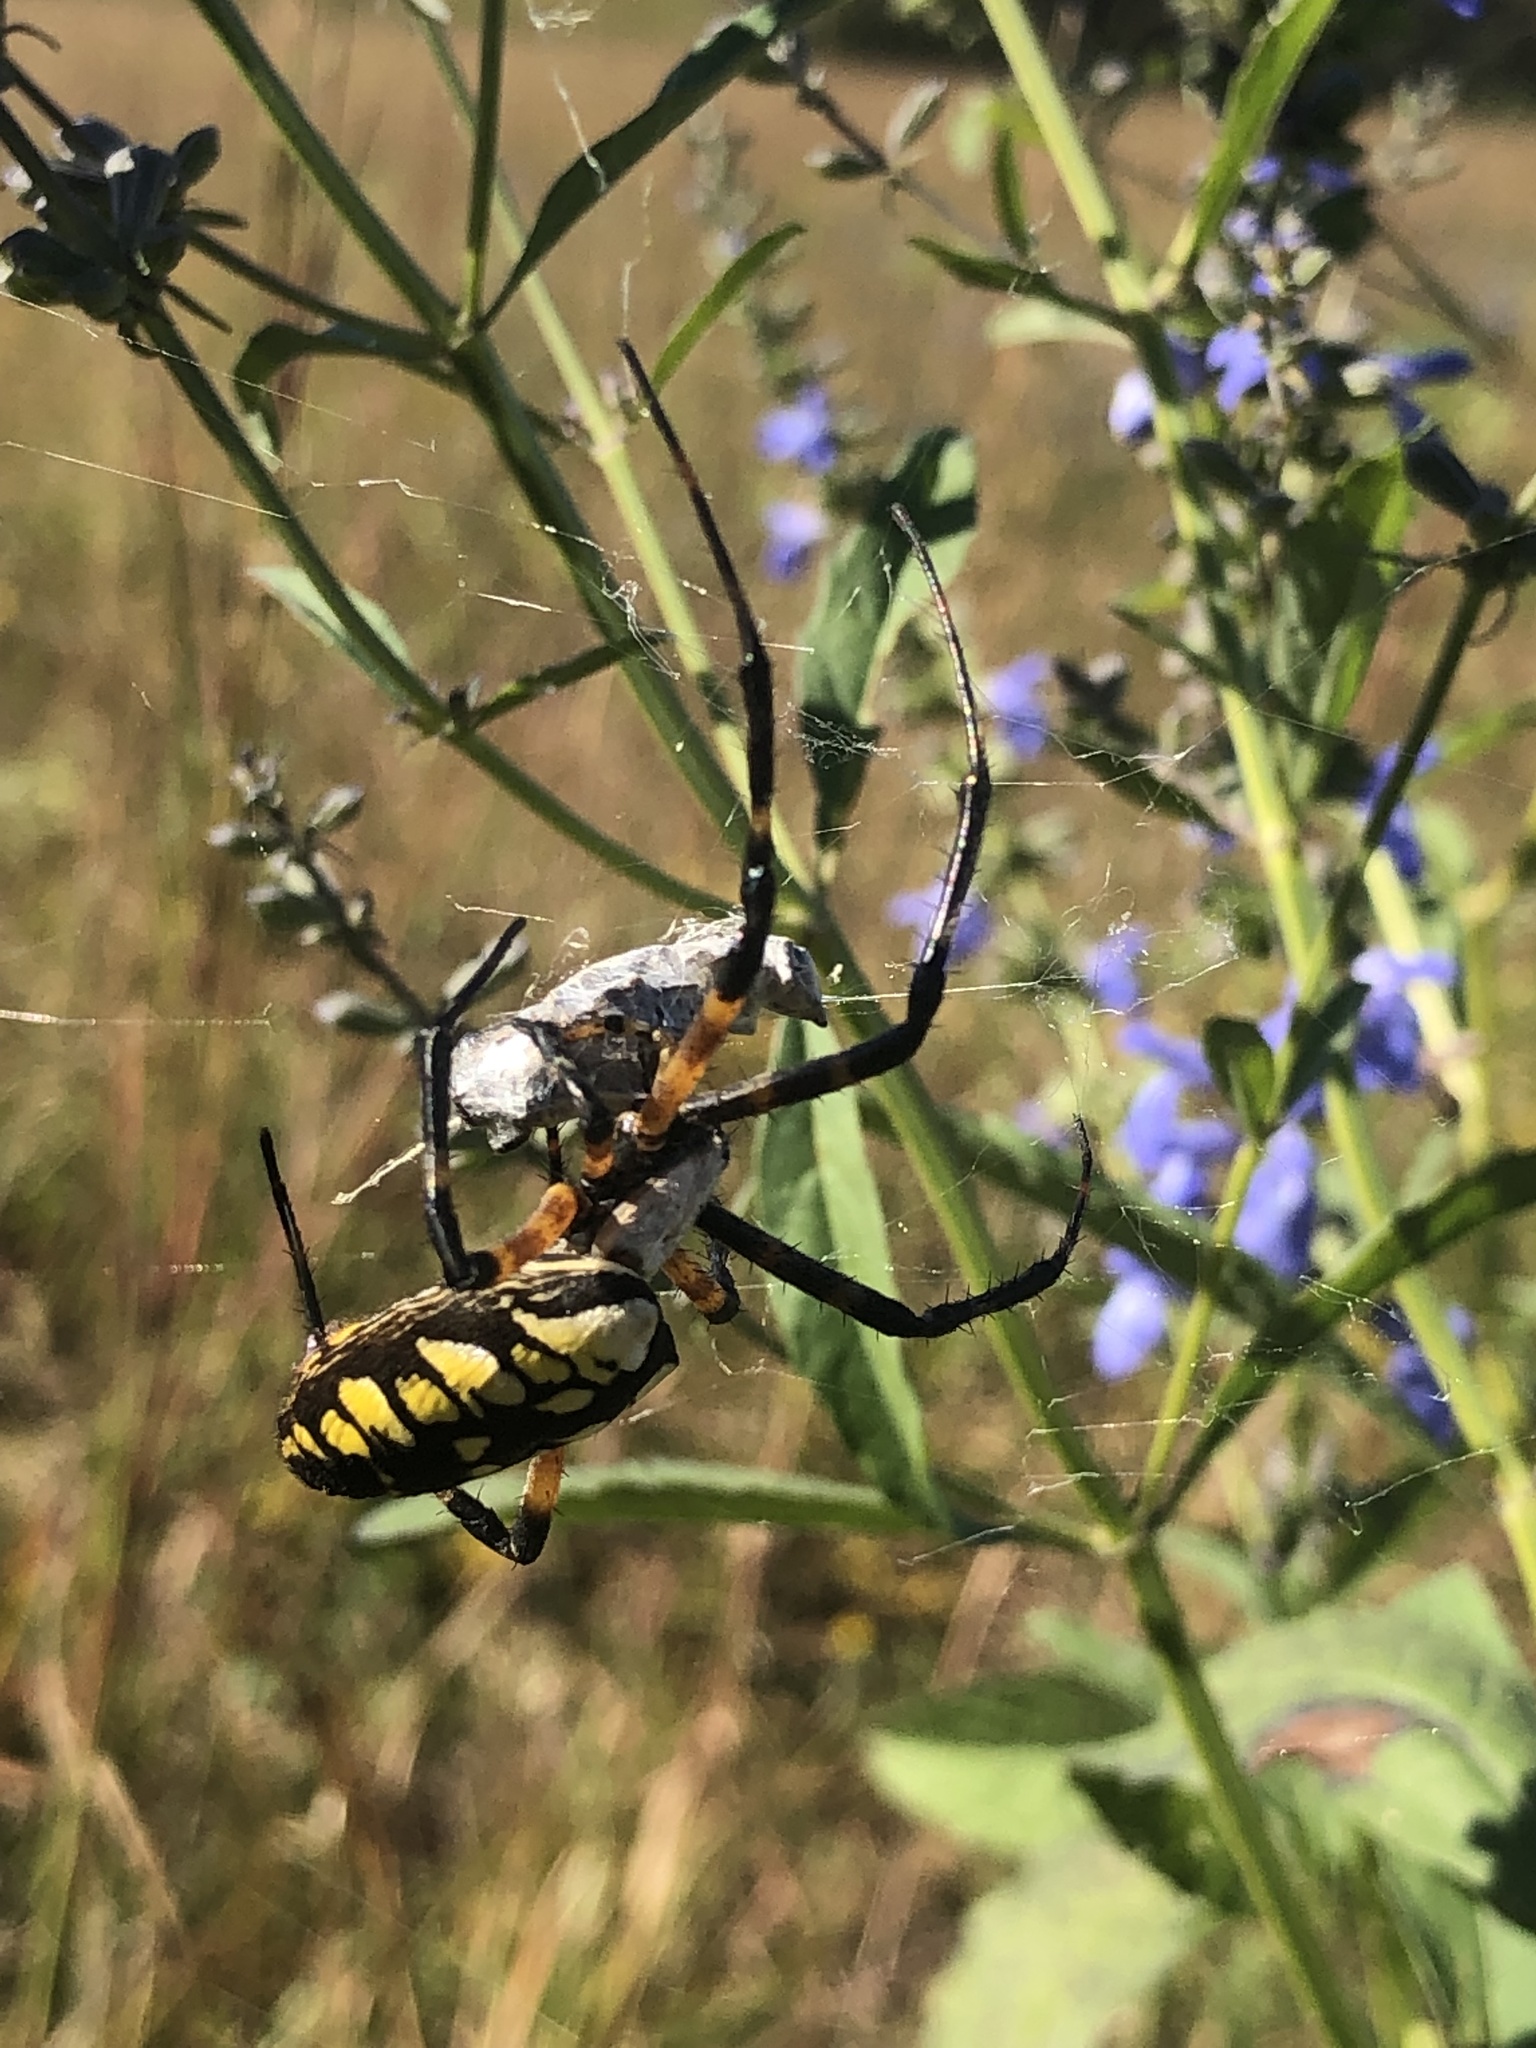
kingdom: Animalia
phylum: Arthropoda
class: Arachnida
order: Araneae
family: Araneidae
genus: Argiope
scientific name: Argiope aurantia
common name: Orb weavers
